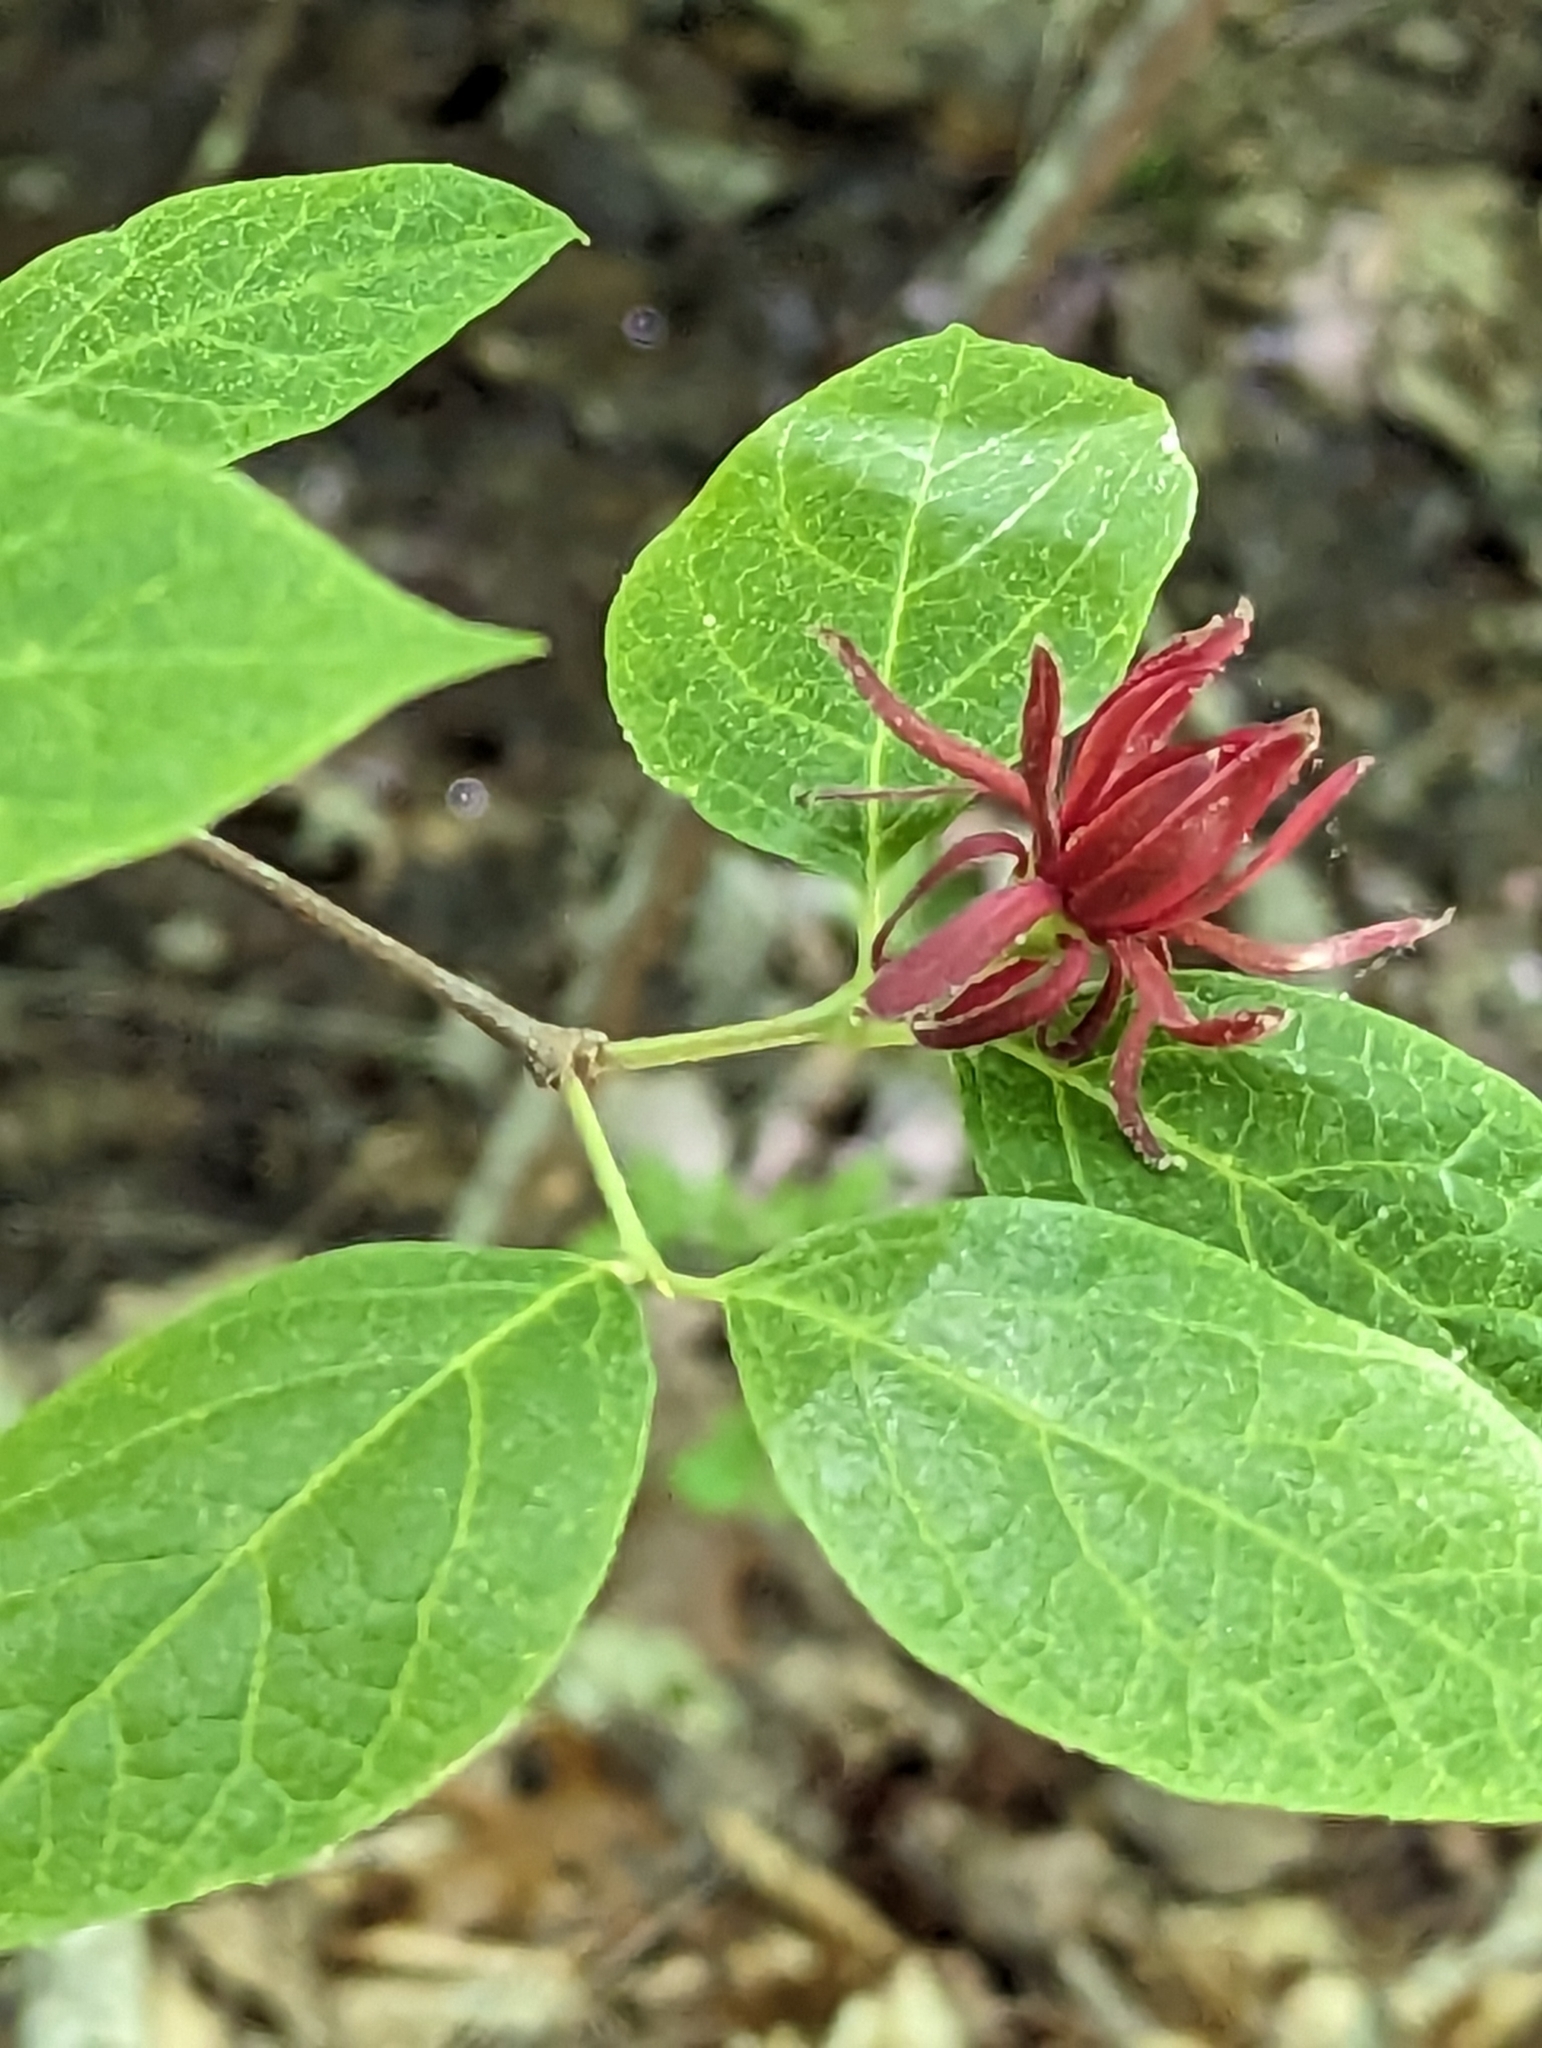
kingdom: Plantae
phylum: Tracheophyta
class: Magnoliopsida
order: Laurales
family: Calycanthaceae
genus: Calycanthus
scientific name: Calycanthus floridus
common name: Carolina-allspice
